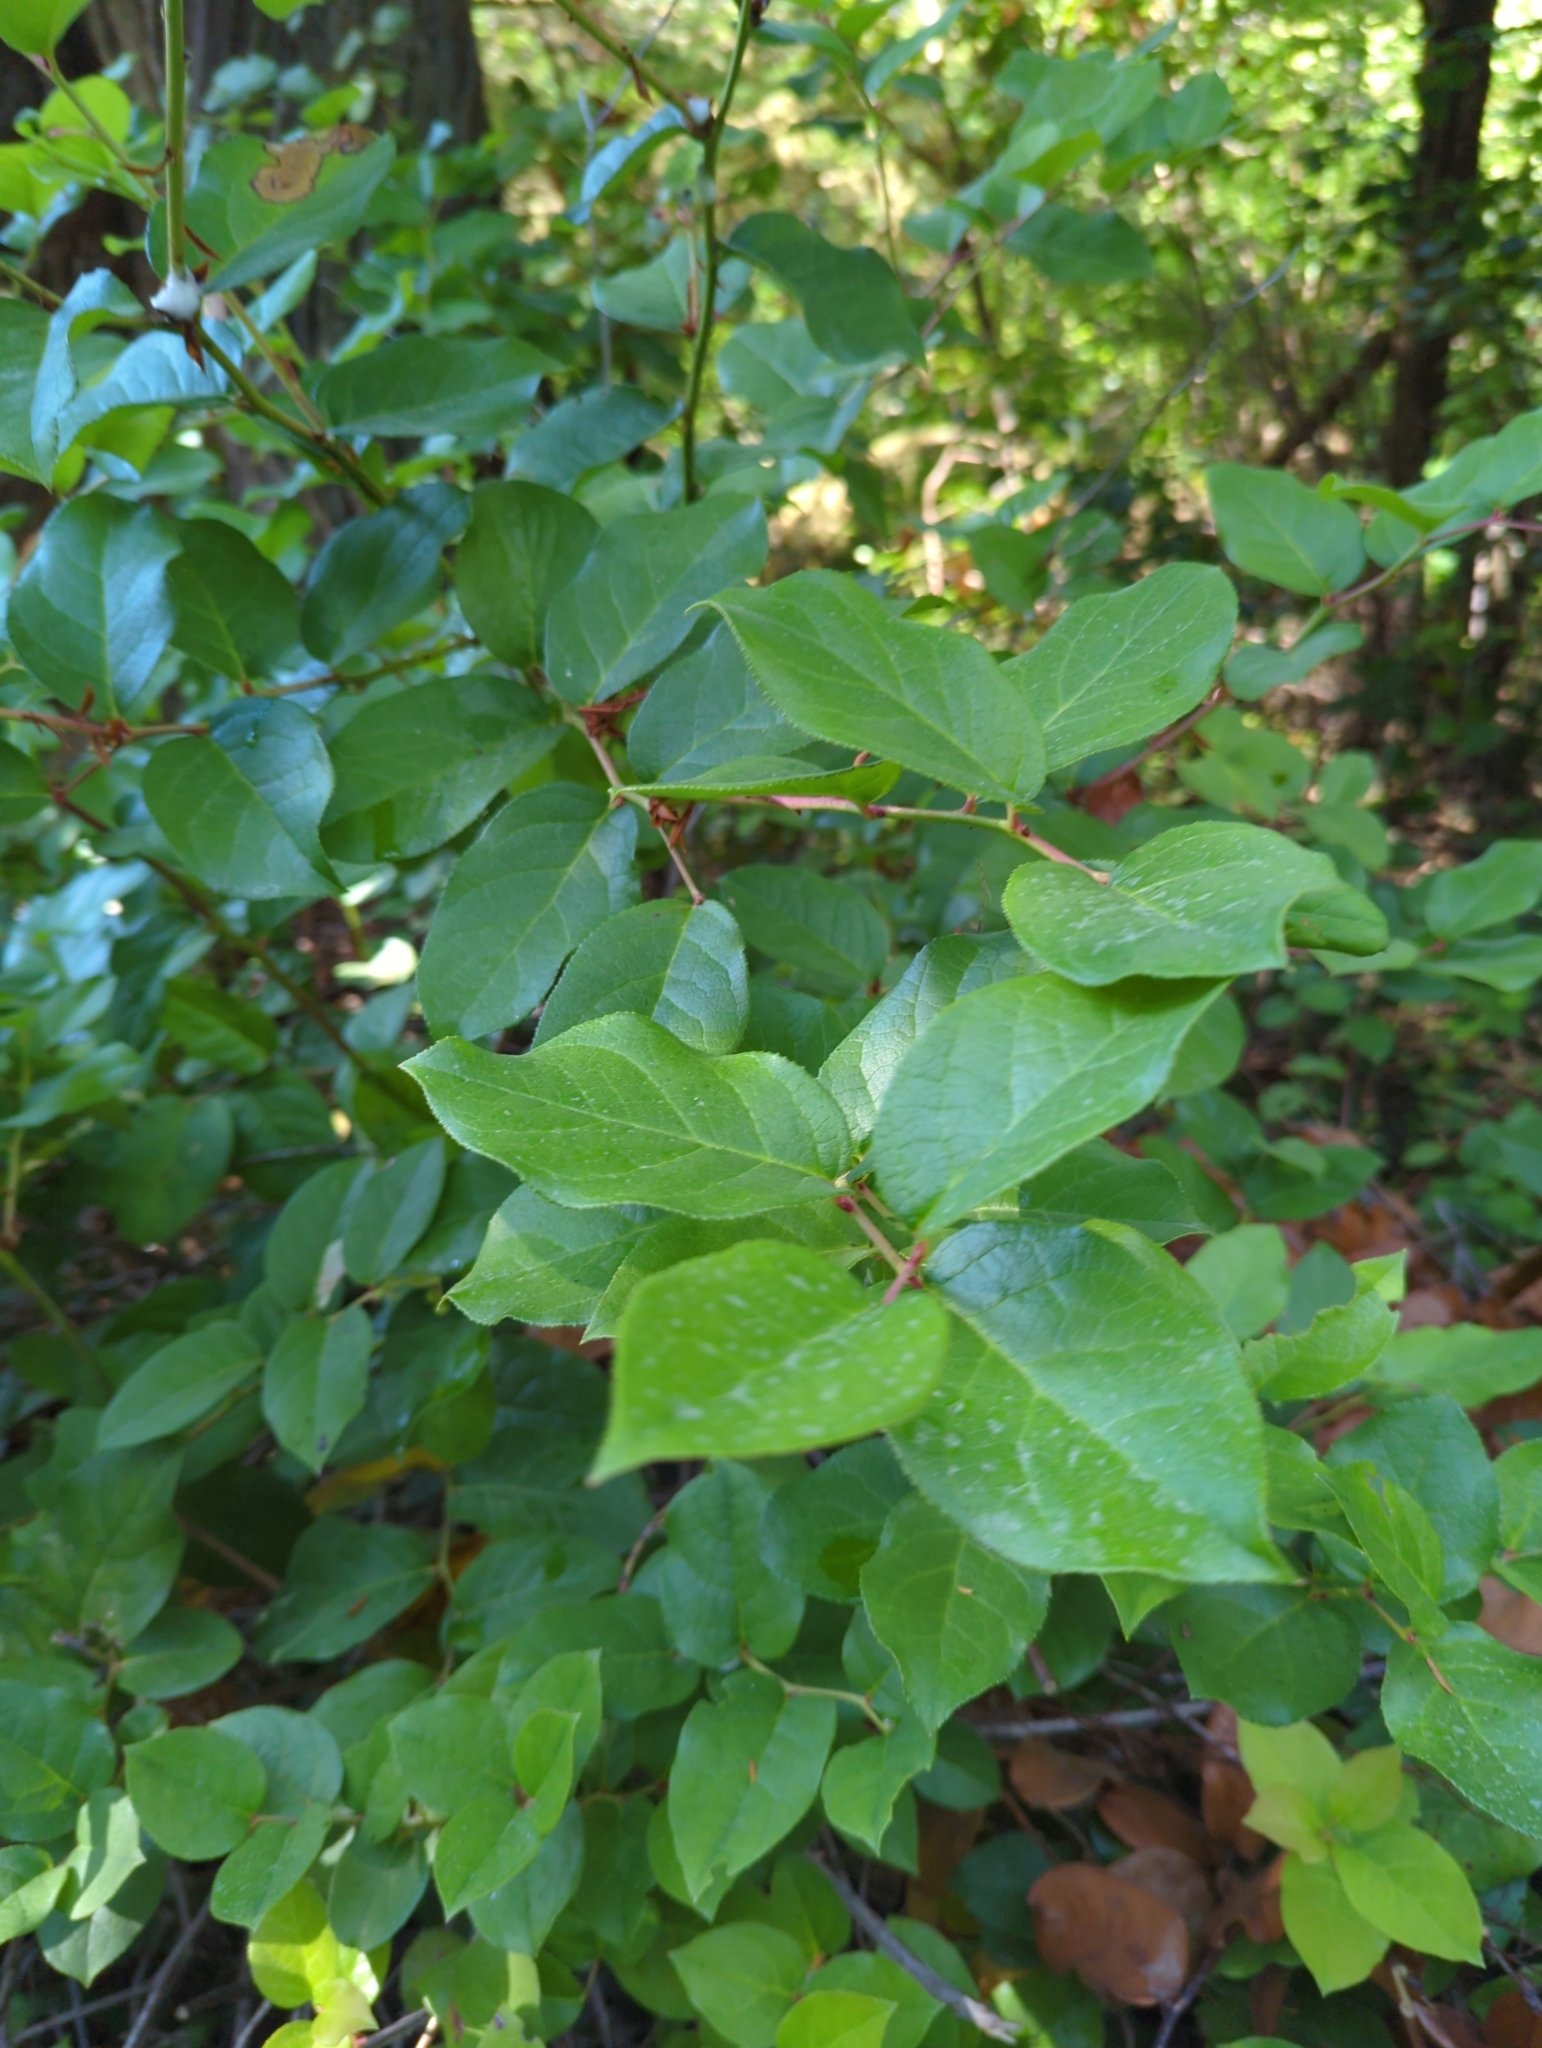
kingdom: Plantae
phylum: Tracheophyta
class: Magnoliopsida
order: Ericales
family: Ericaceae
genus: Gaultheria
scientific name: Gaultheria shallon
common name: Shallon
